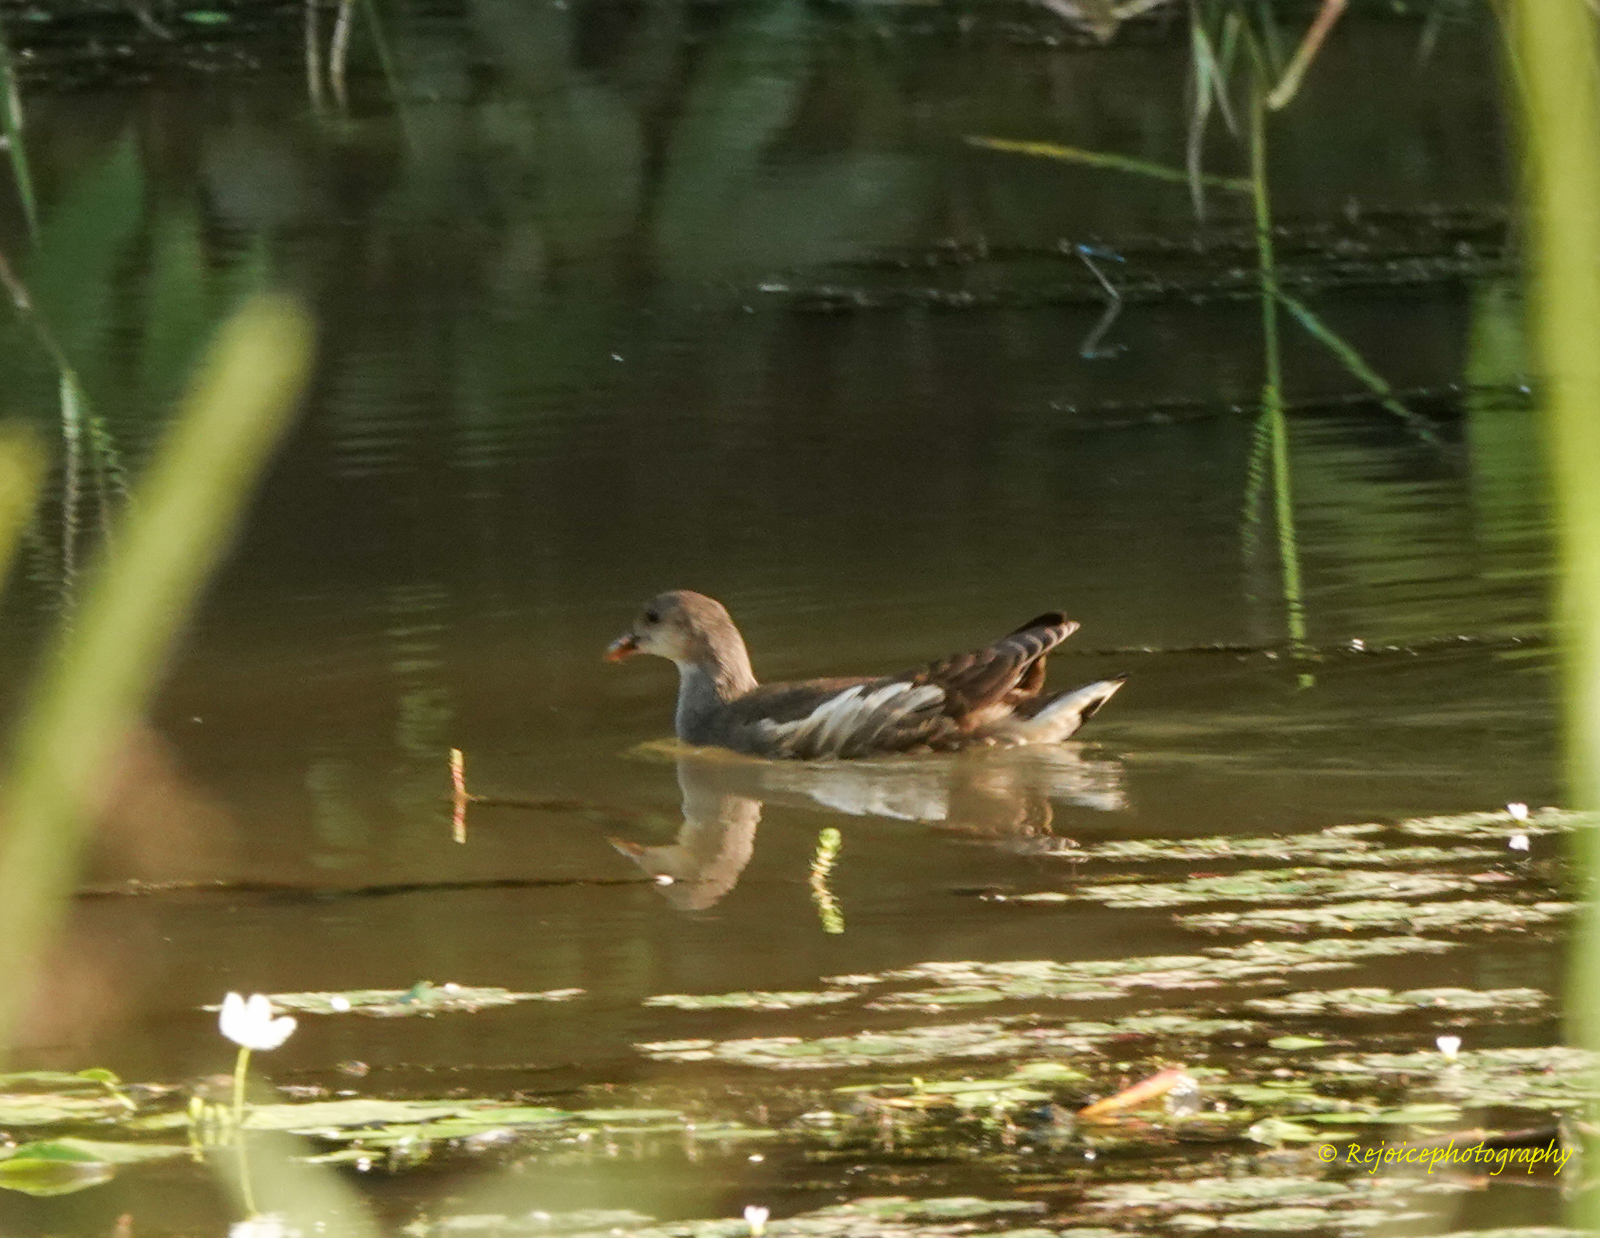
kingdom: Animalia
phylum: Chordata
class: Aves
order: Gruiformes
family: Rallidae
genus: Gallinula
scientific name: Gallinula chloropus
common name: Common moorhen
